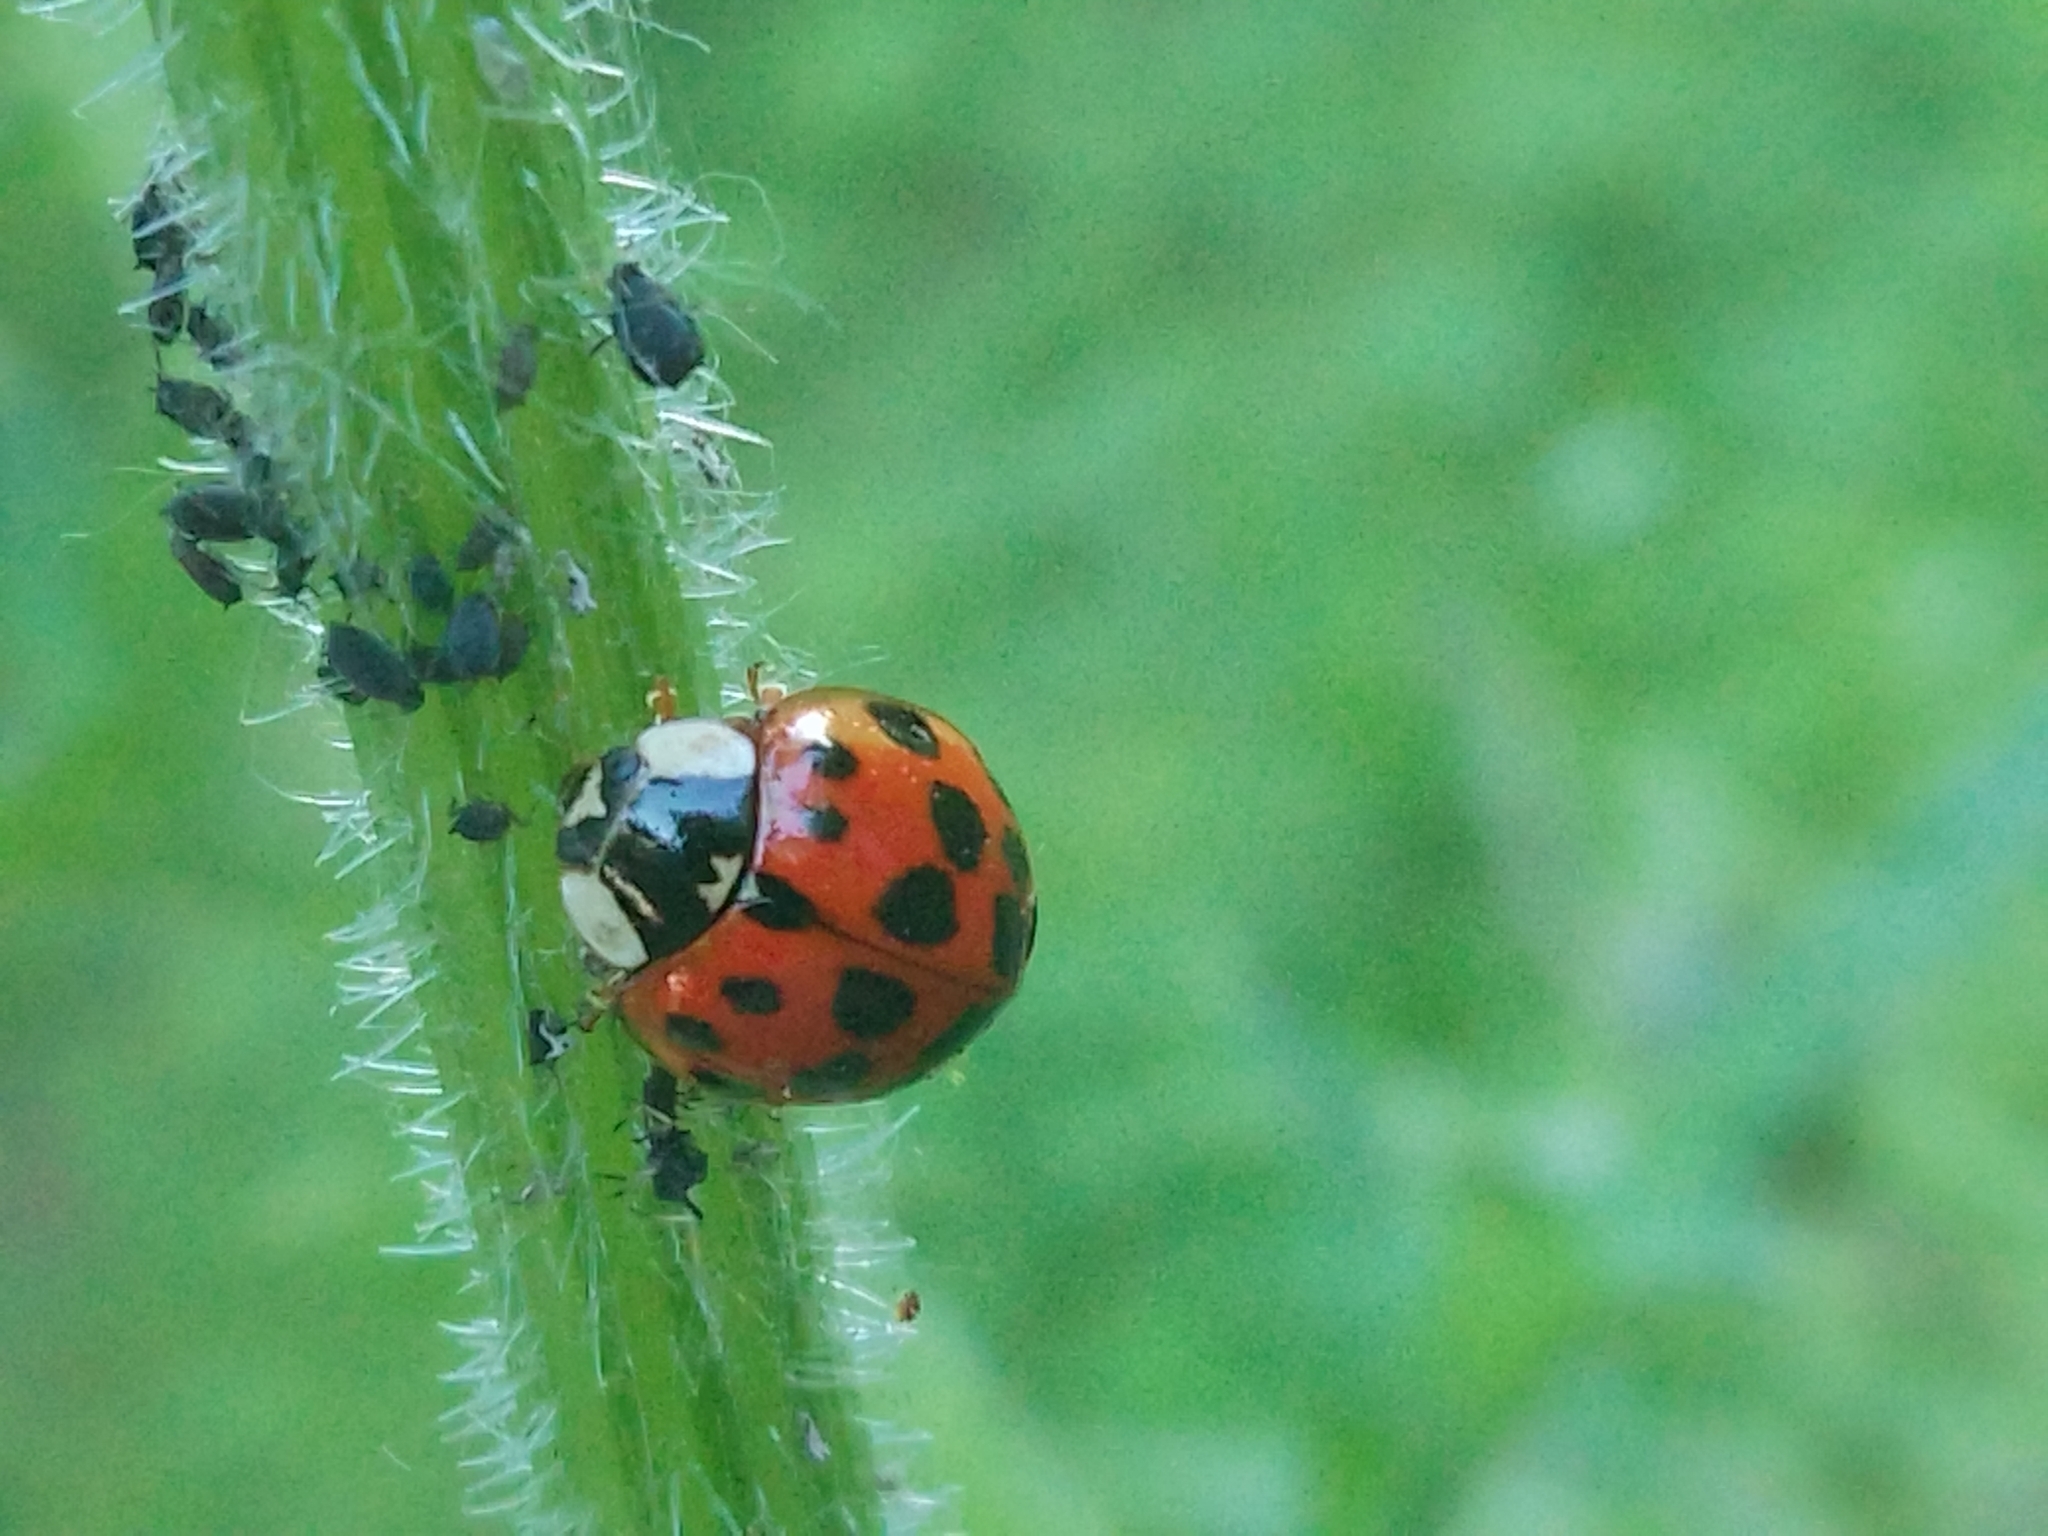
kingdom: Animalia
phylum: Arthropoda
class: Insecta
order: Coleoptera
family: Coccinellidae
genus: Harmonia
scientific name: Harmonia axyridis
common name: Harlequin ladybird
